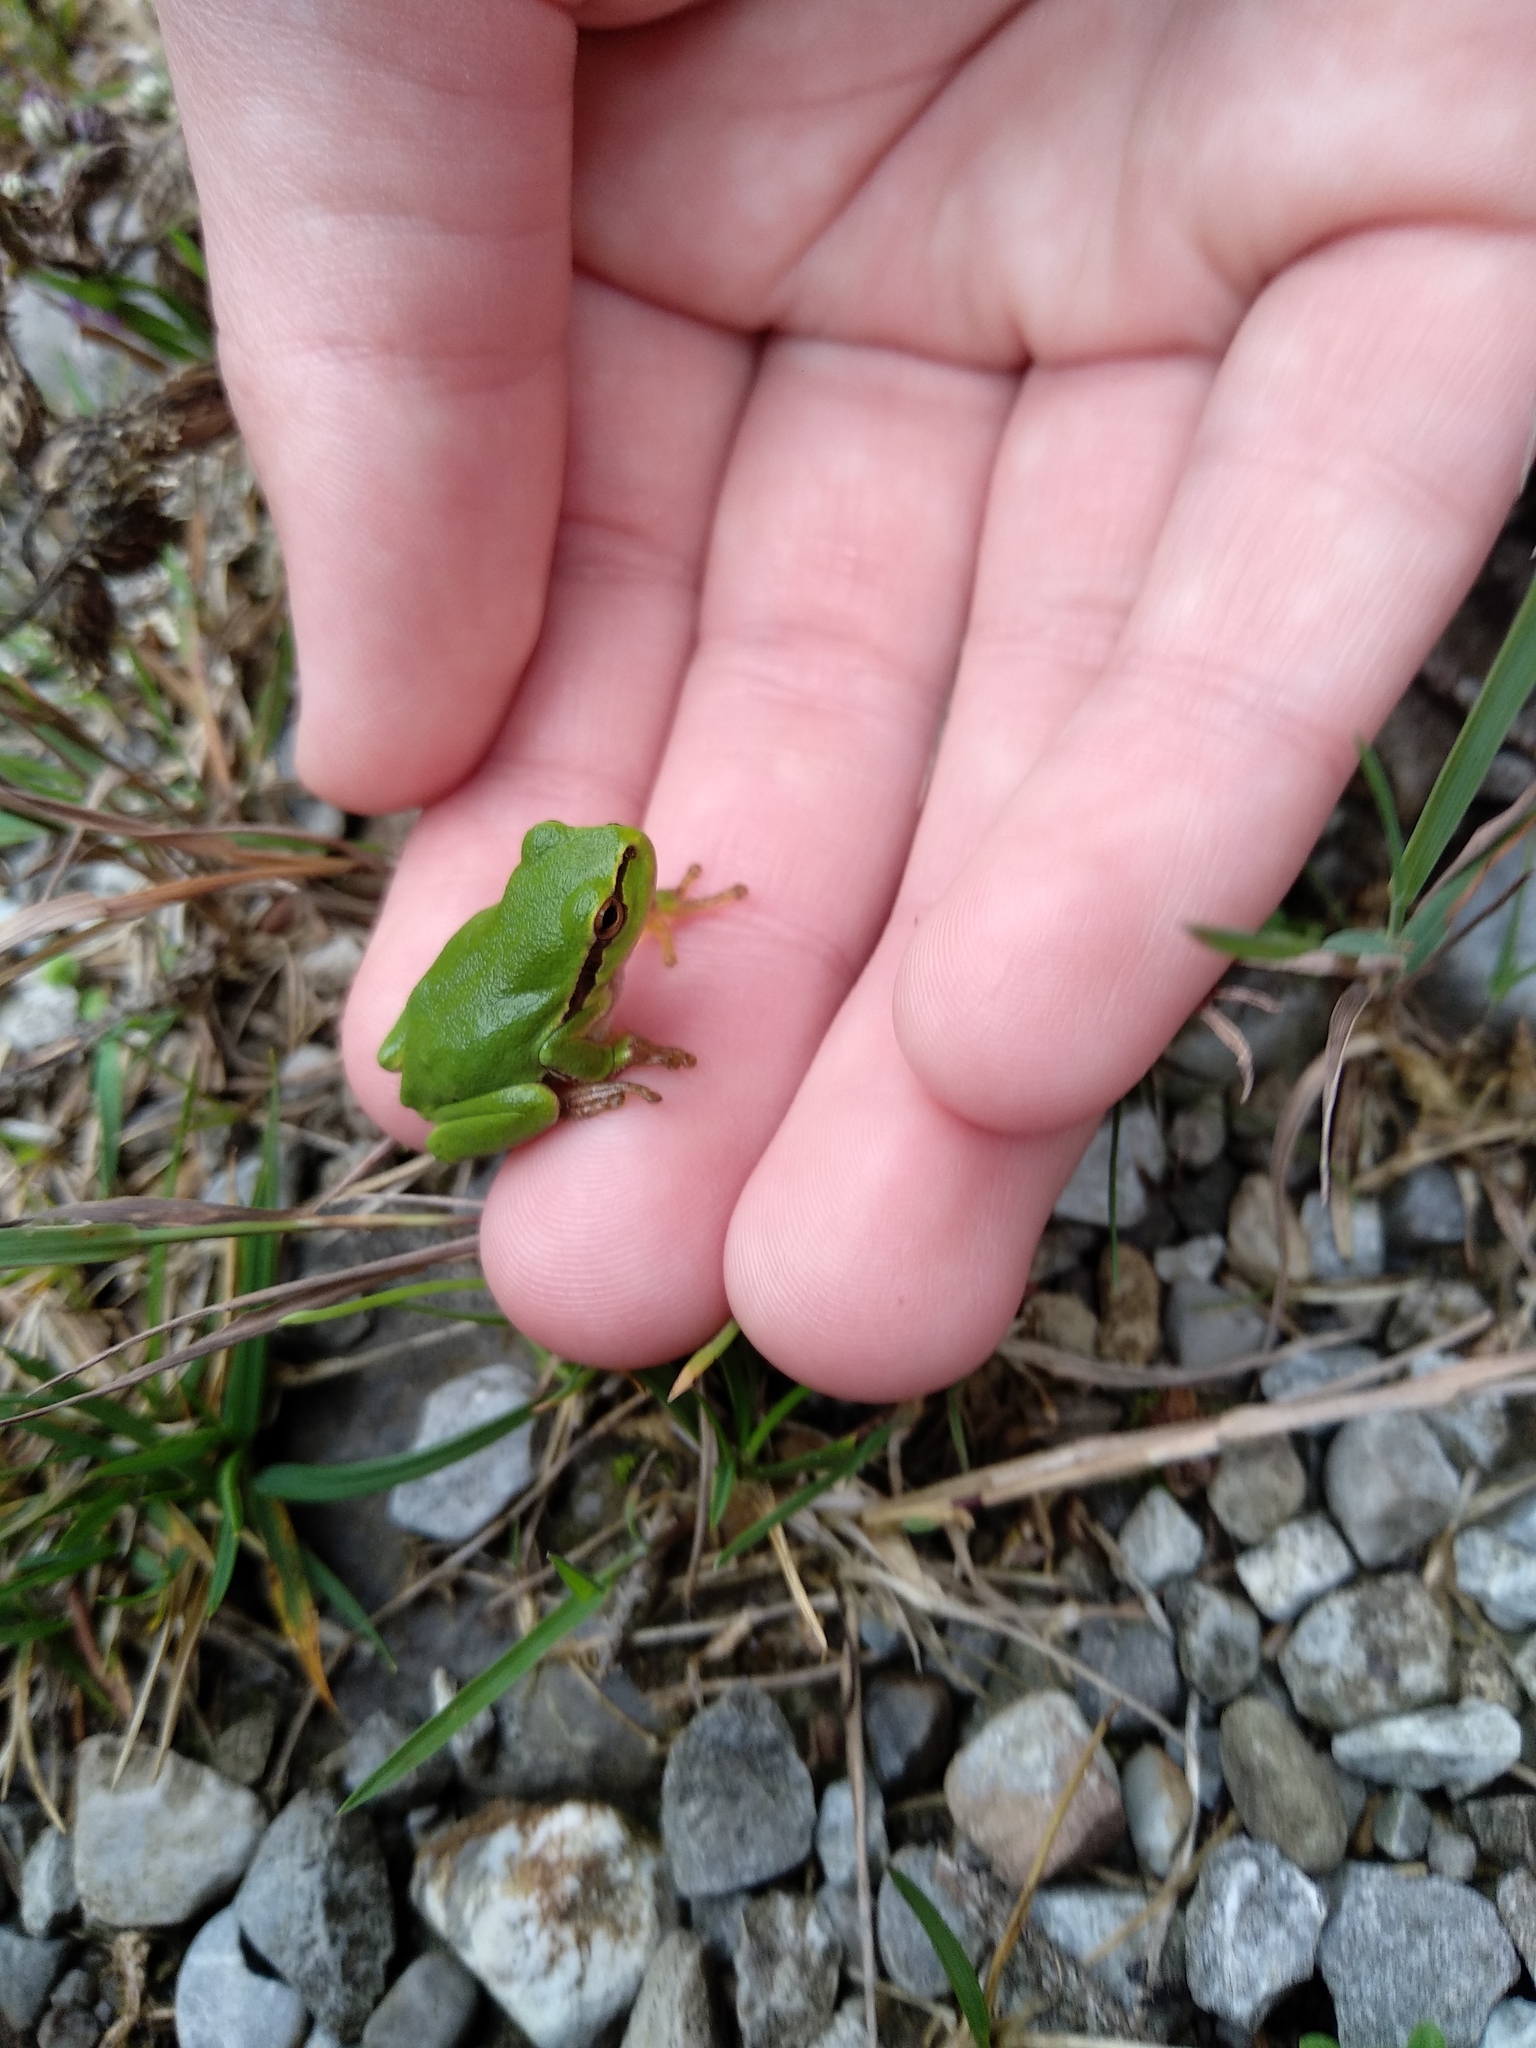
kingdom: Animalia
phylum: Chordata
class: Amphibia
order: Anura
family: Hylidae
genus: Hyla
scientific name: Hyla arborea
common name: Common tree frog
